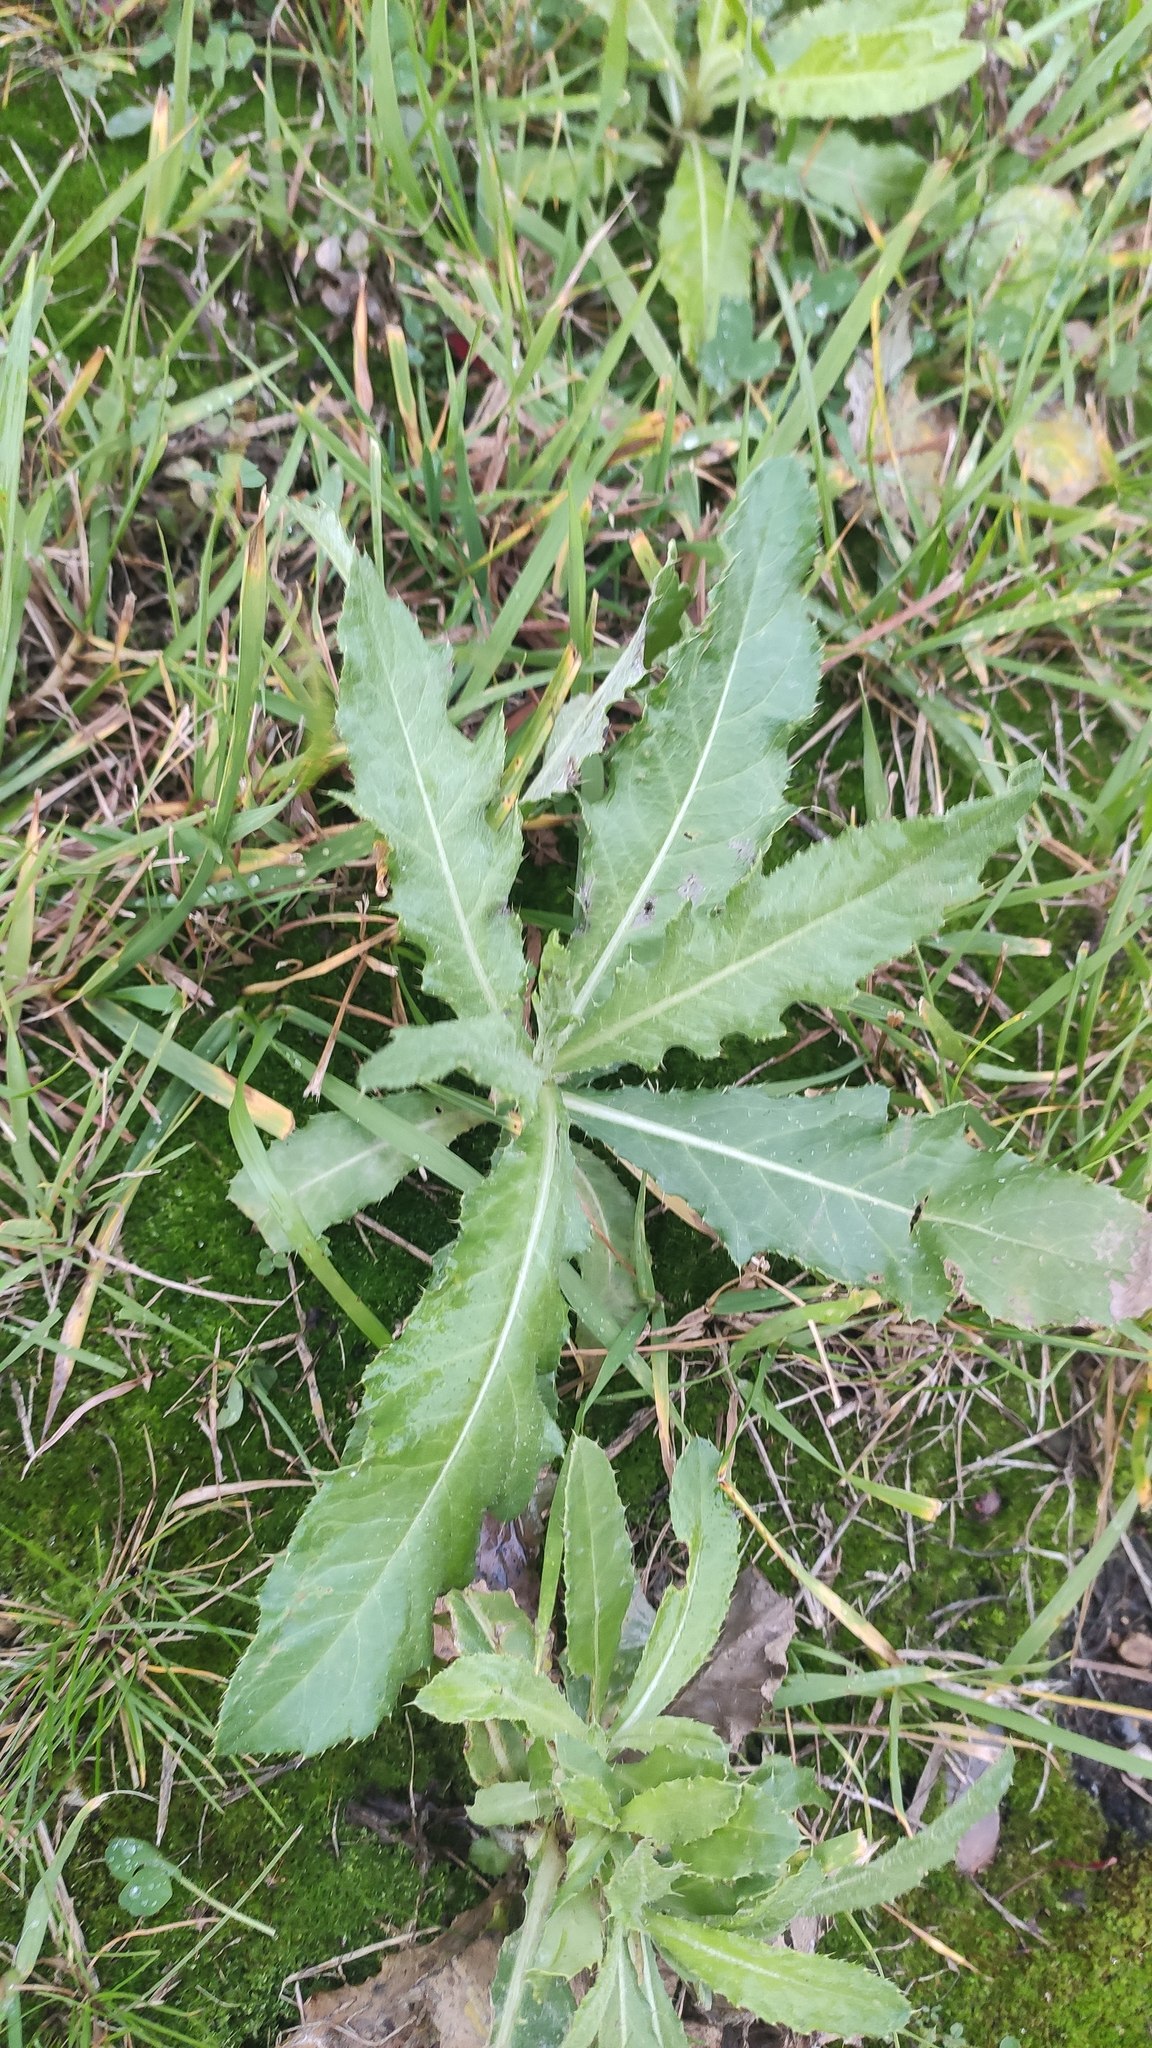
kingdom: Plantae
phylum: Tracheophyta
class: Magnoliopsida
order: Asterales
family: Asteraceae
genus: Cirsium
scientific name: Cirsium arvense
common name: Creeping thistle
